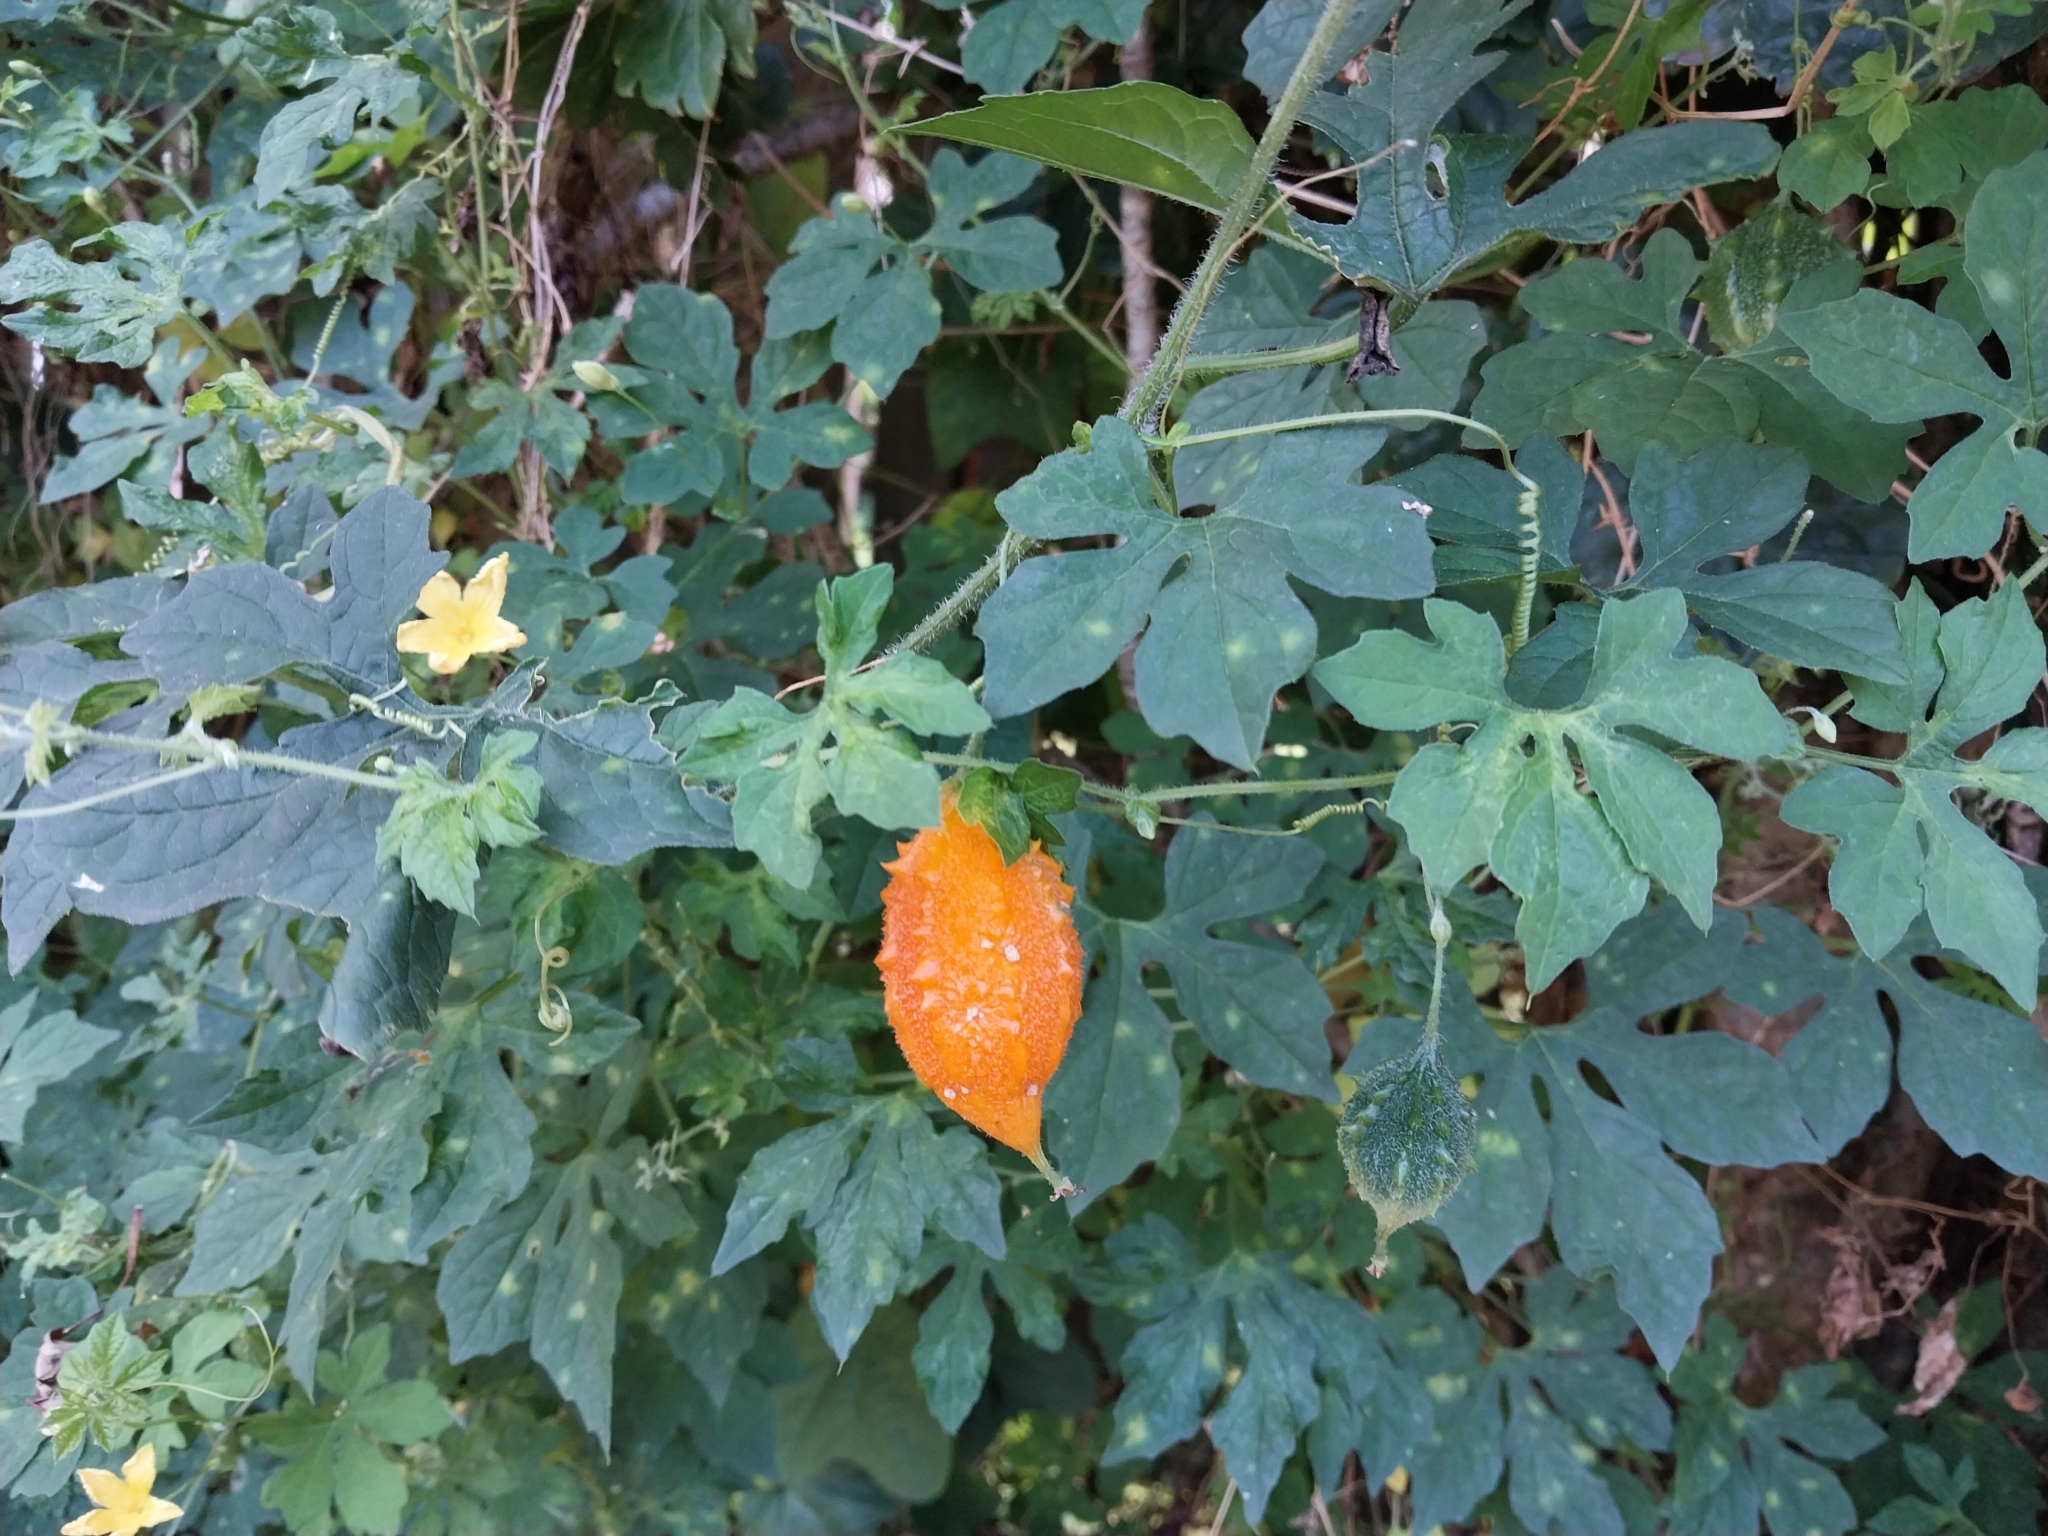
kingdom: Plantae
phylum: Tracheophyta
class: Magnoliopsida
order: Cucurbitales
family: Cucurbitaceae
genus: Momordica
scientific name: Momordica charantia
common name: Balsampear
